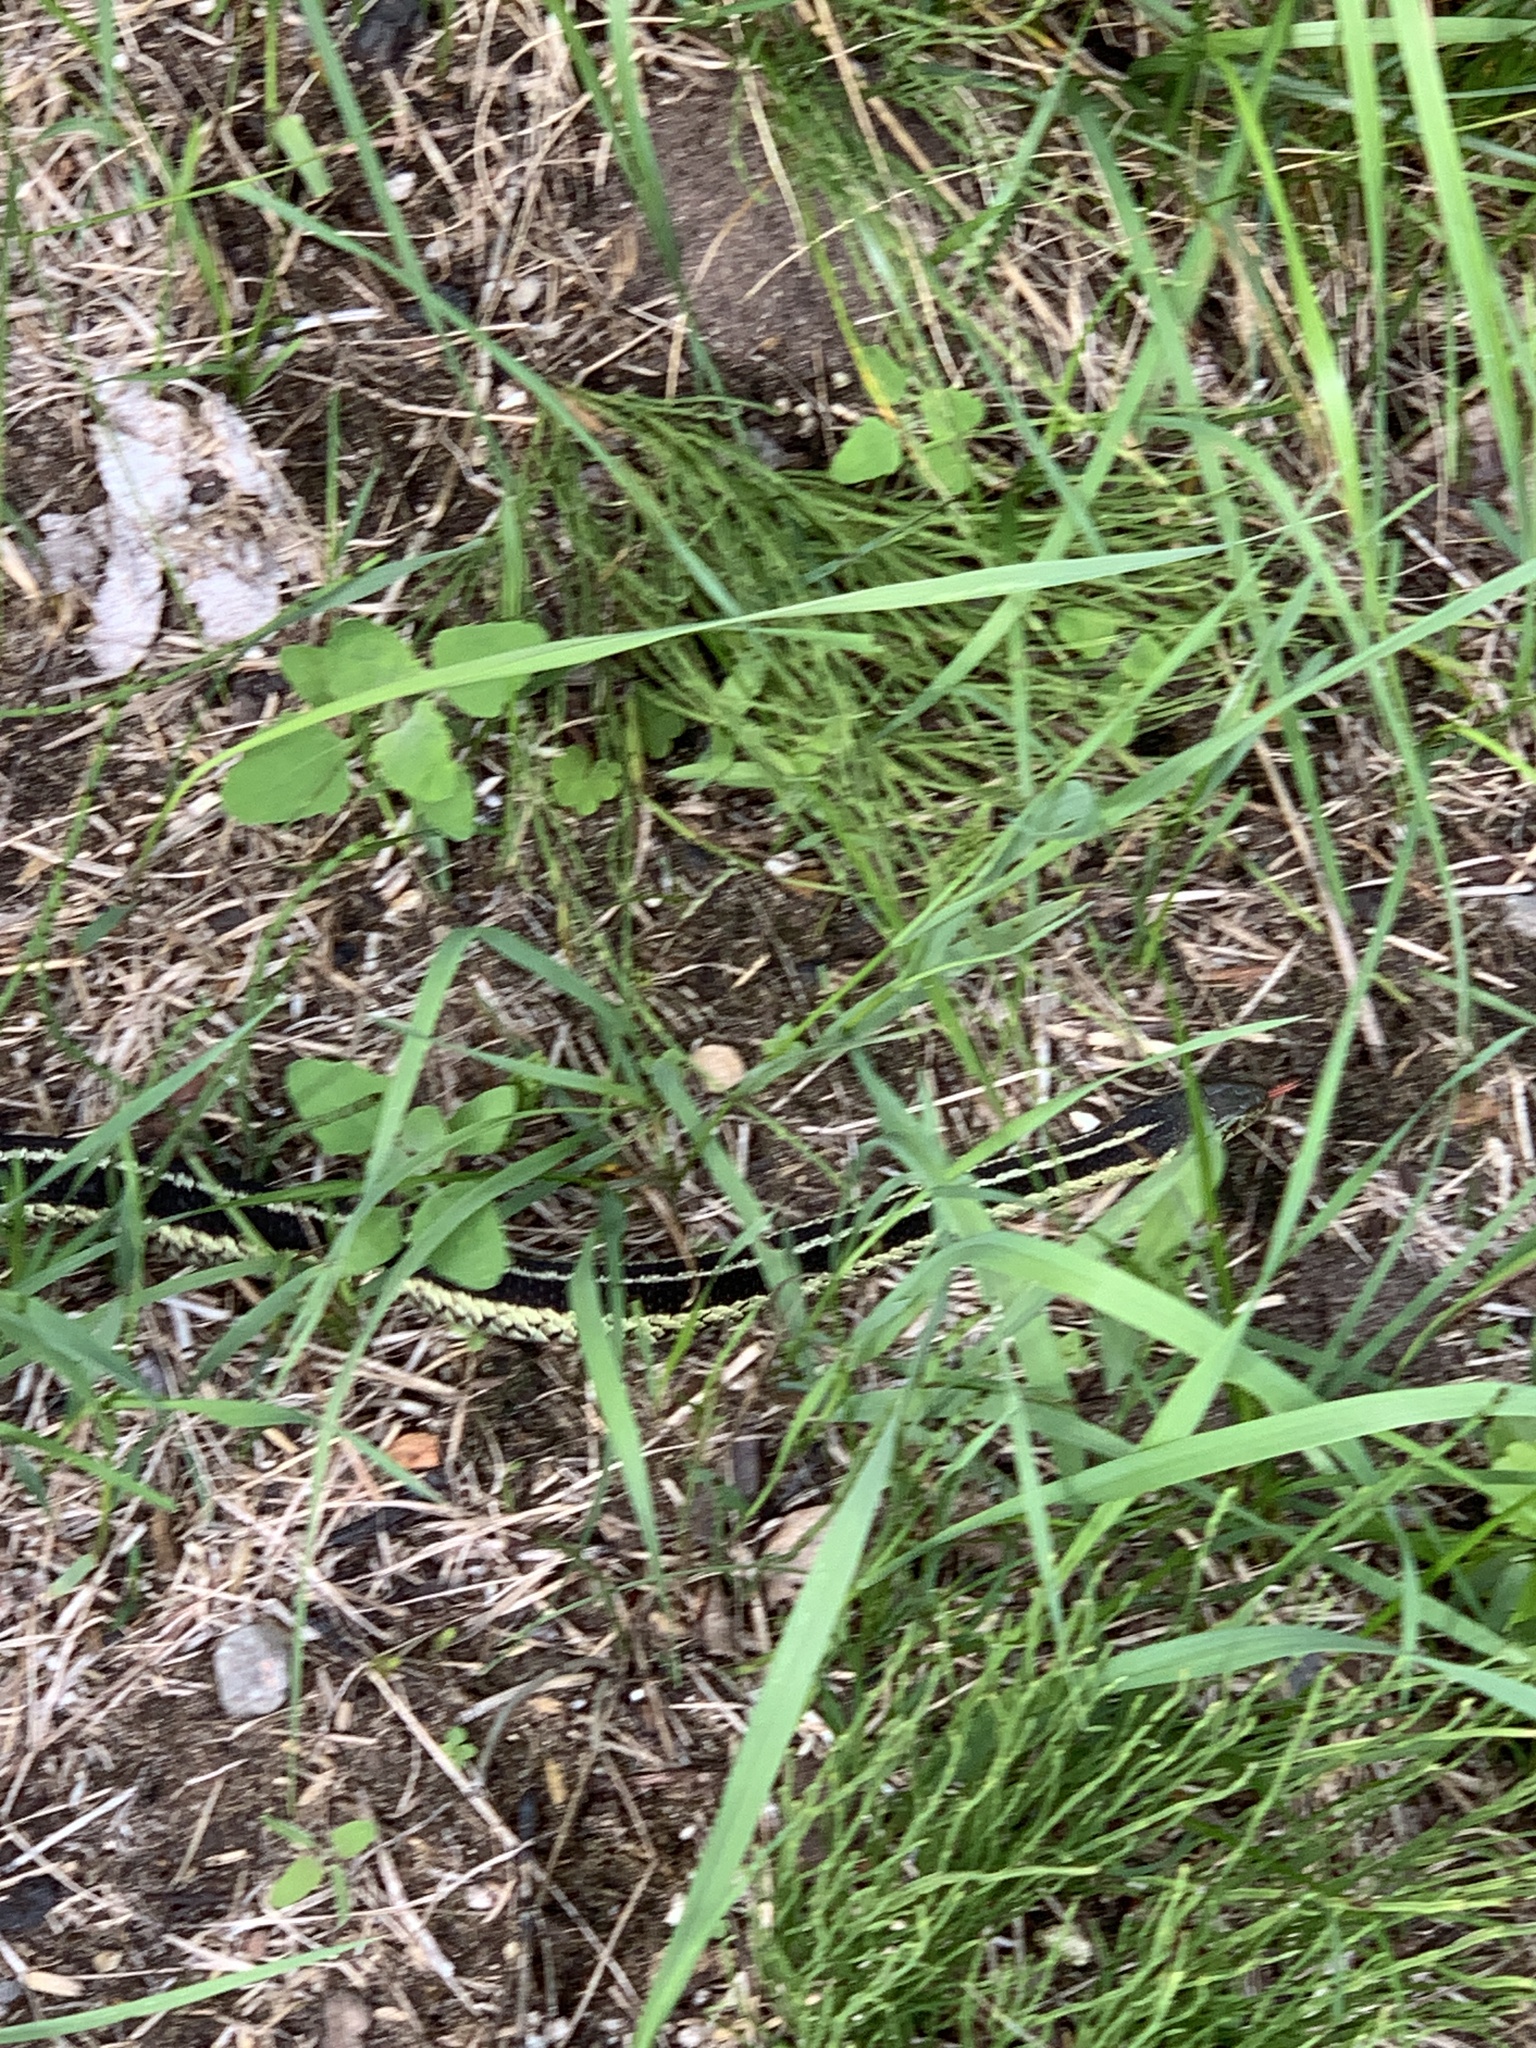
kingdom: Animalia
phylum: Chordata
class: Squamata
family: Colubridae
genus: Thamnophis
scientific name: Thamnophis sirtalis
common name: Common garter snake
